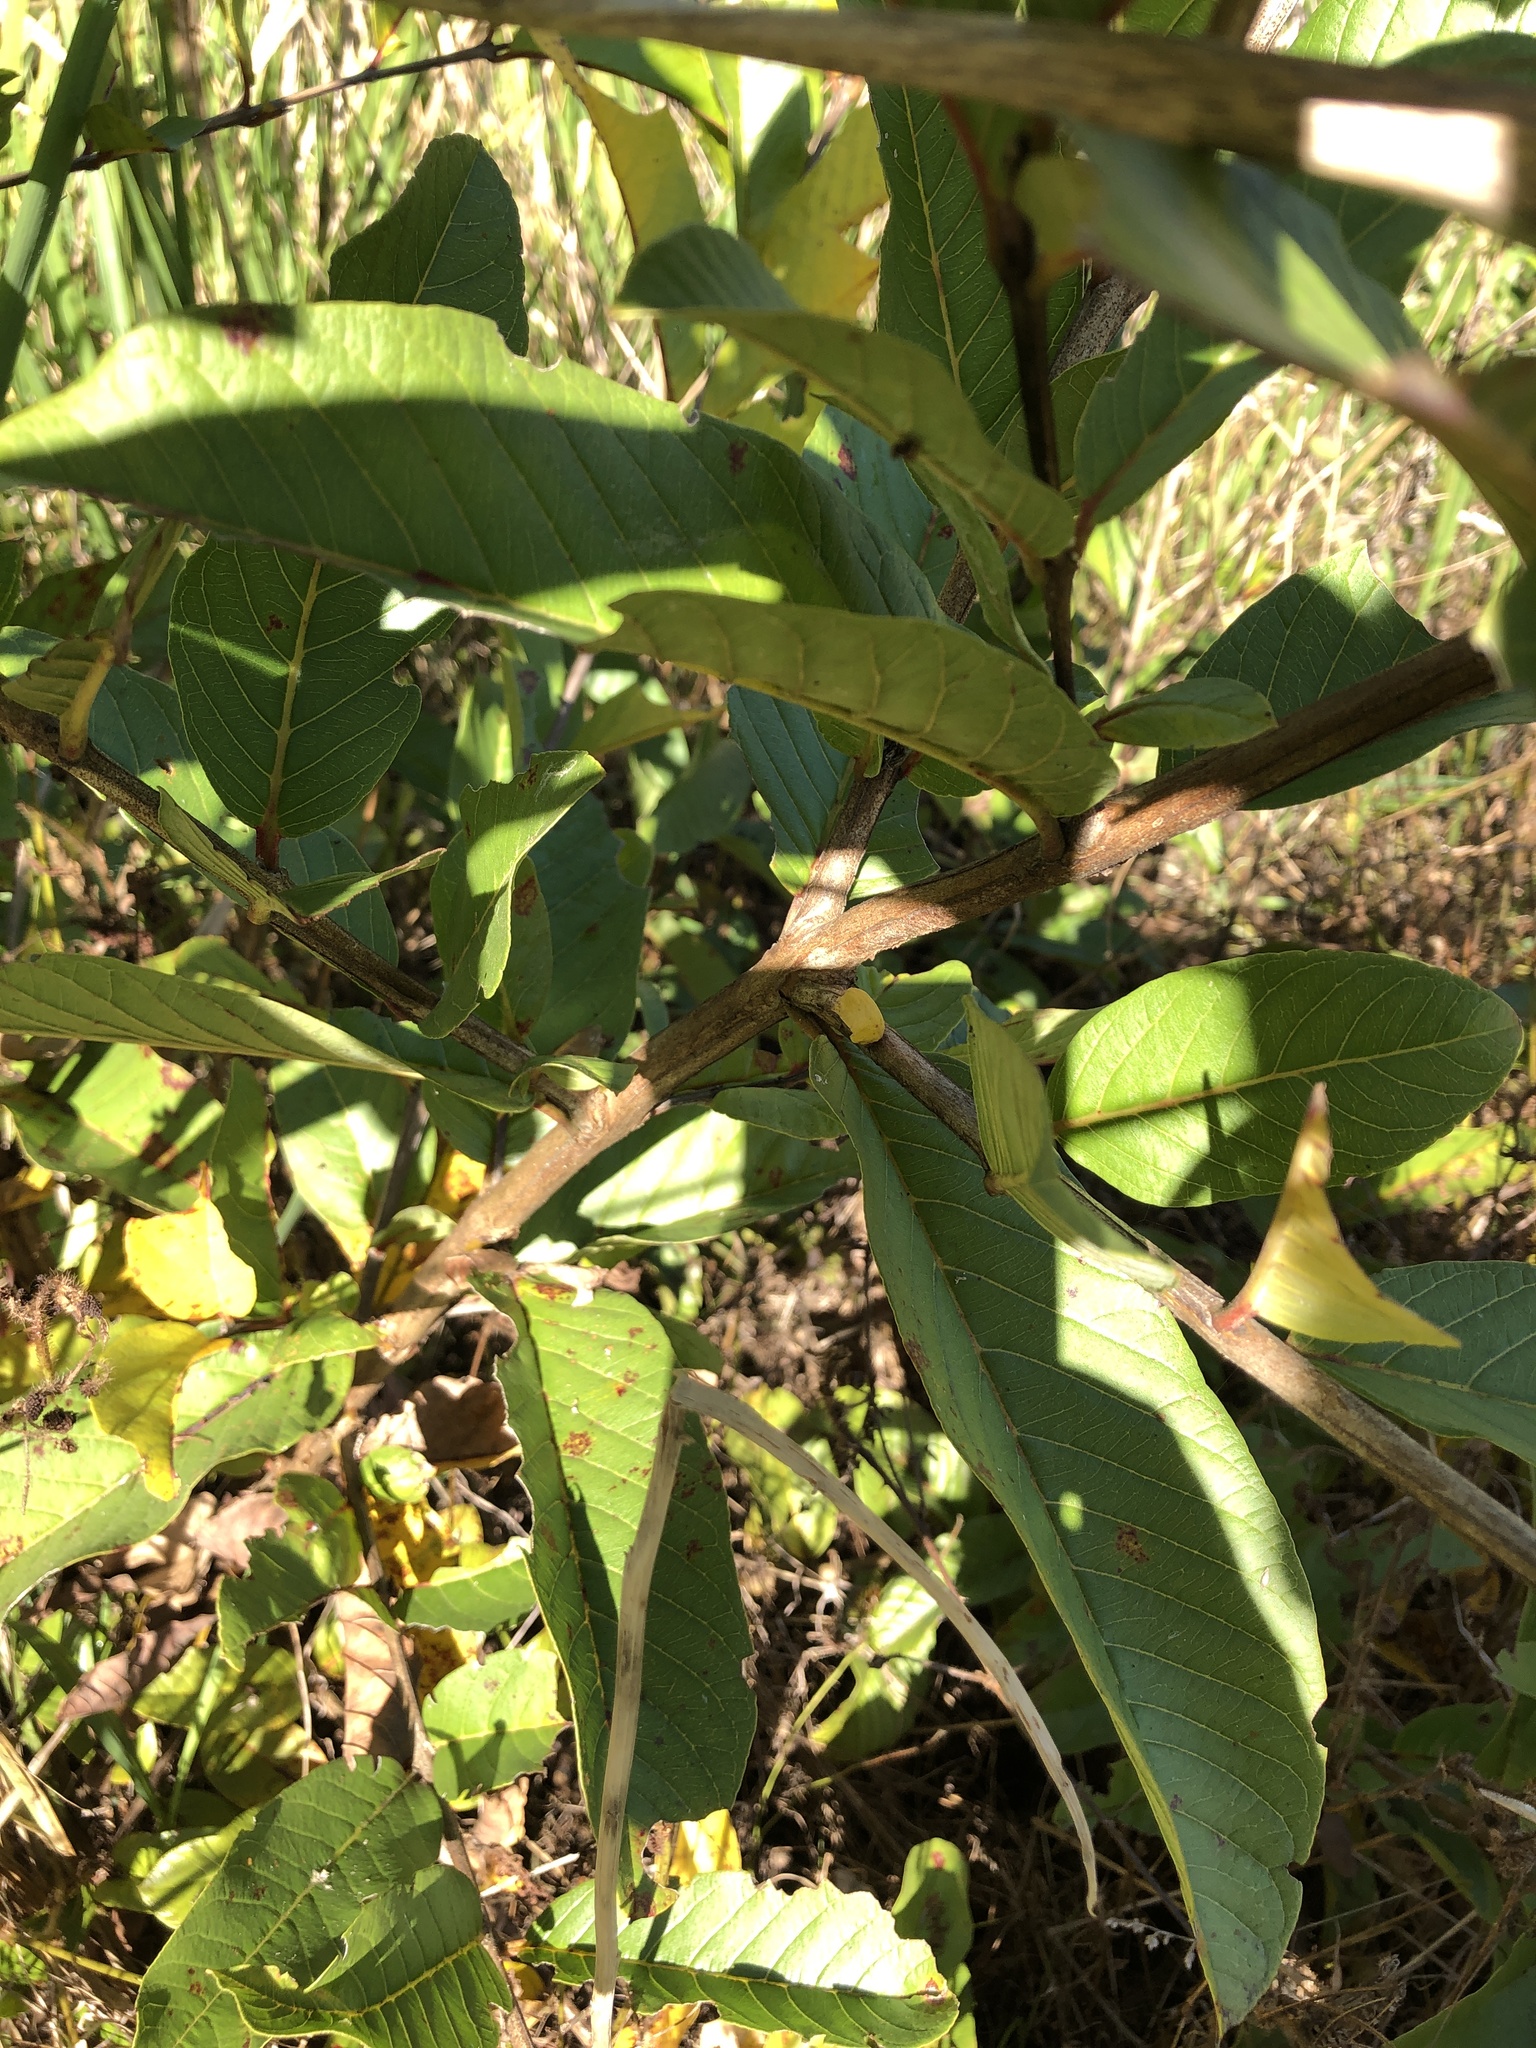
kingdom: Plantae
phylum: Tracheophyta
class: Magnoliopsida
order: Myrtales
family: Myrtaceae
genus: Psidium
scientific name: Psidium guajava
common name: Guava
